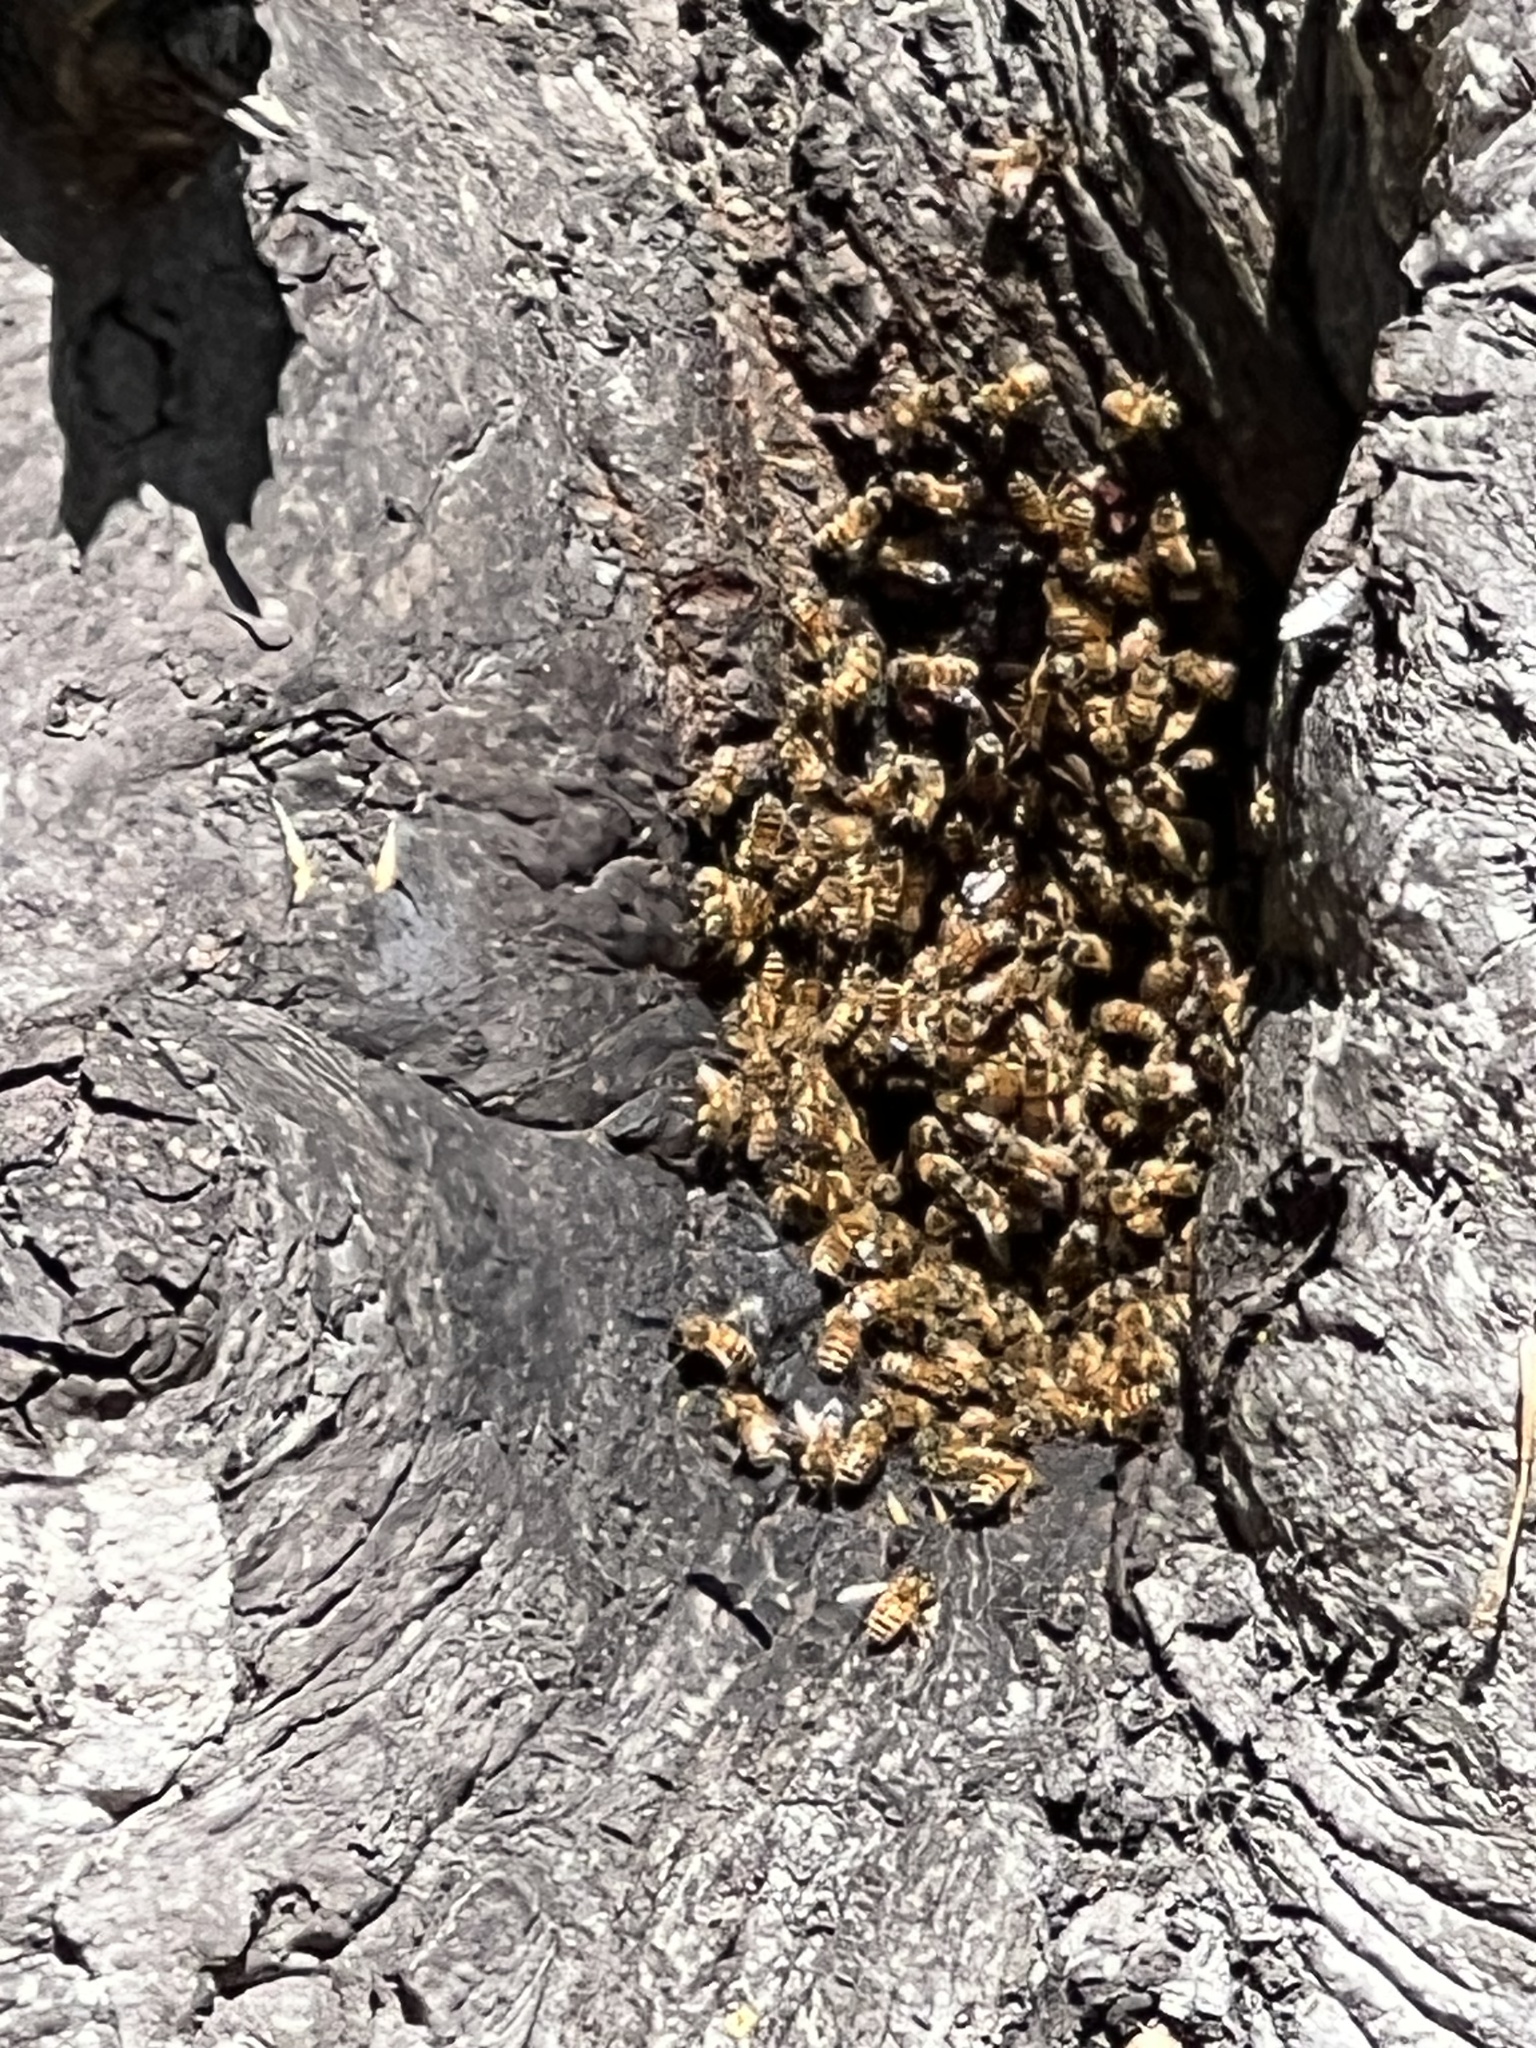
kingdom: Animalia
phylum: Arthropoda
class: Insecta
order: Hymenoptera
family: Apidae
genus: Apis
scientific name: Apis mellifera
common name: Honey bee
